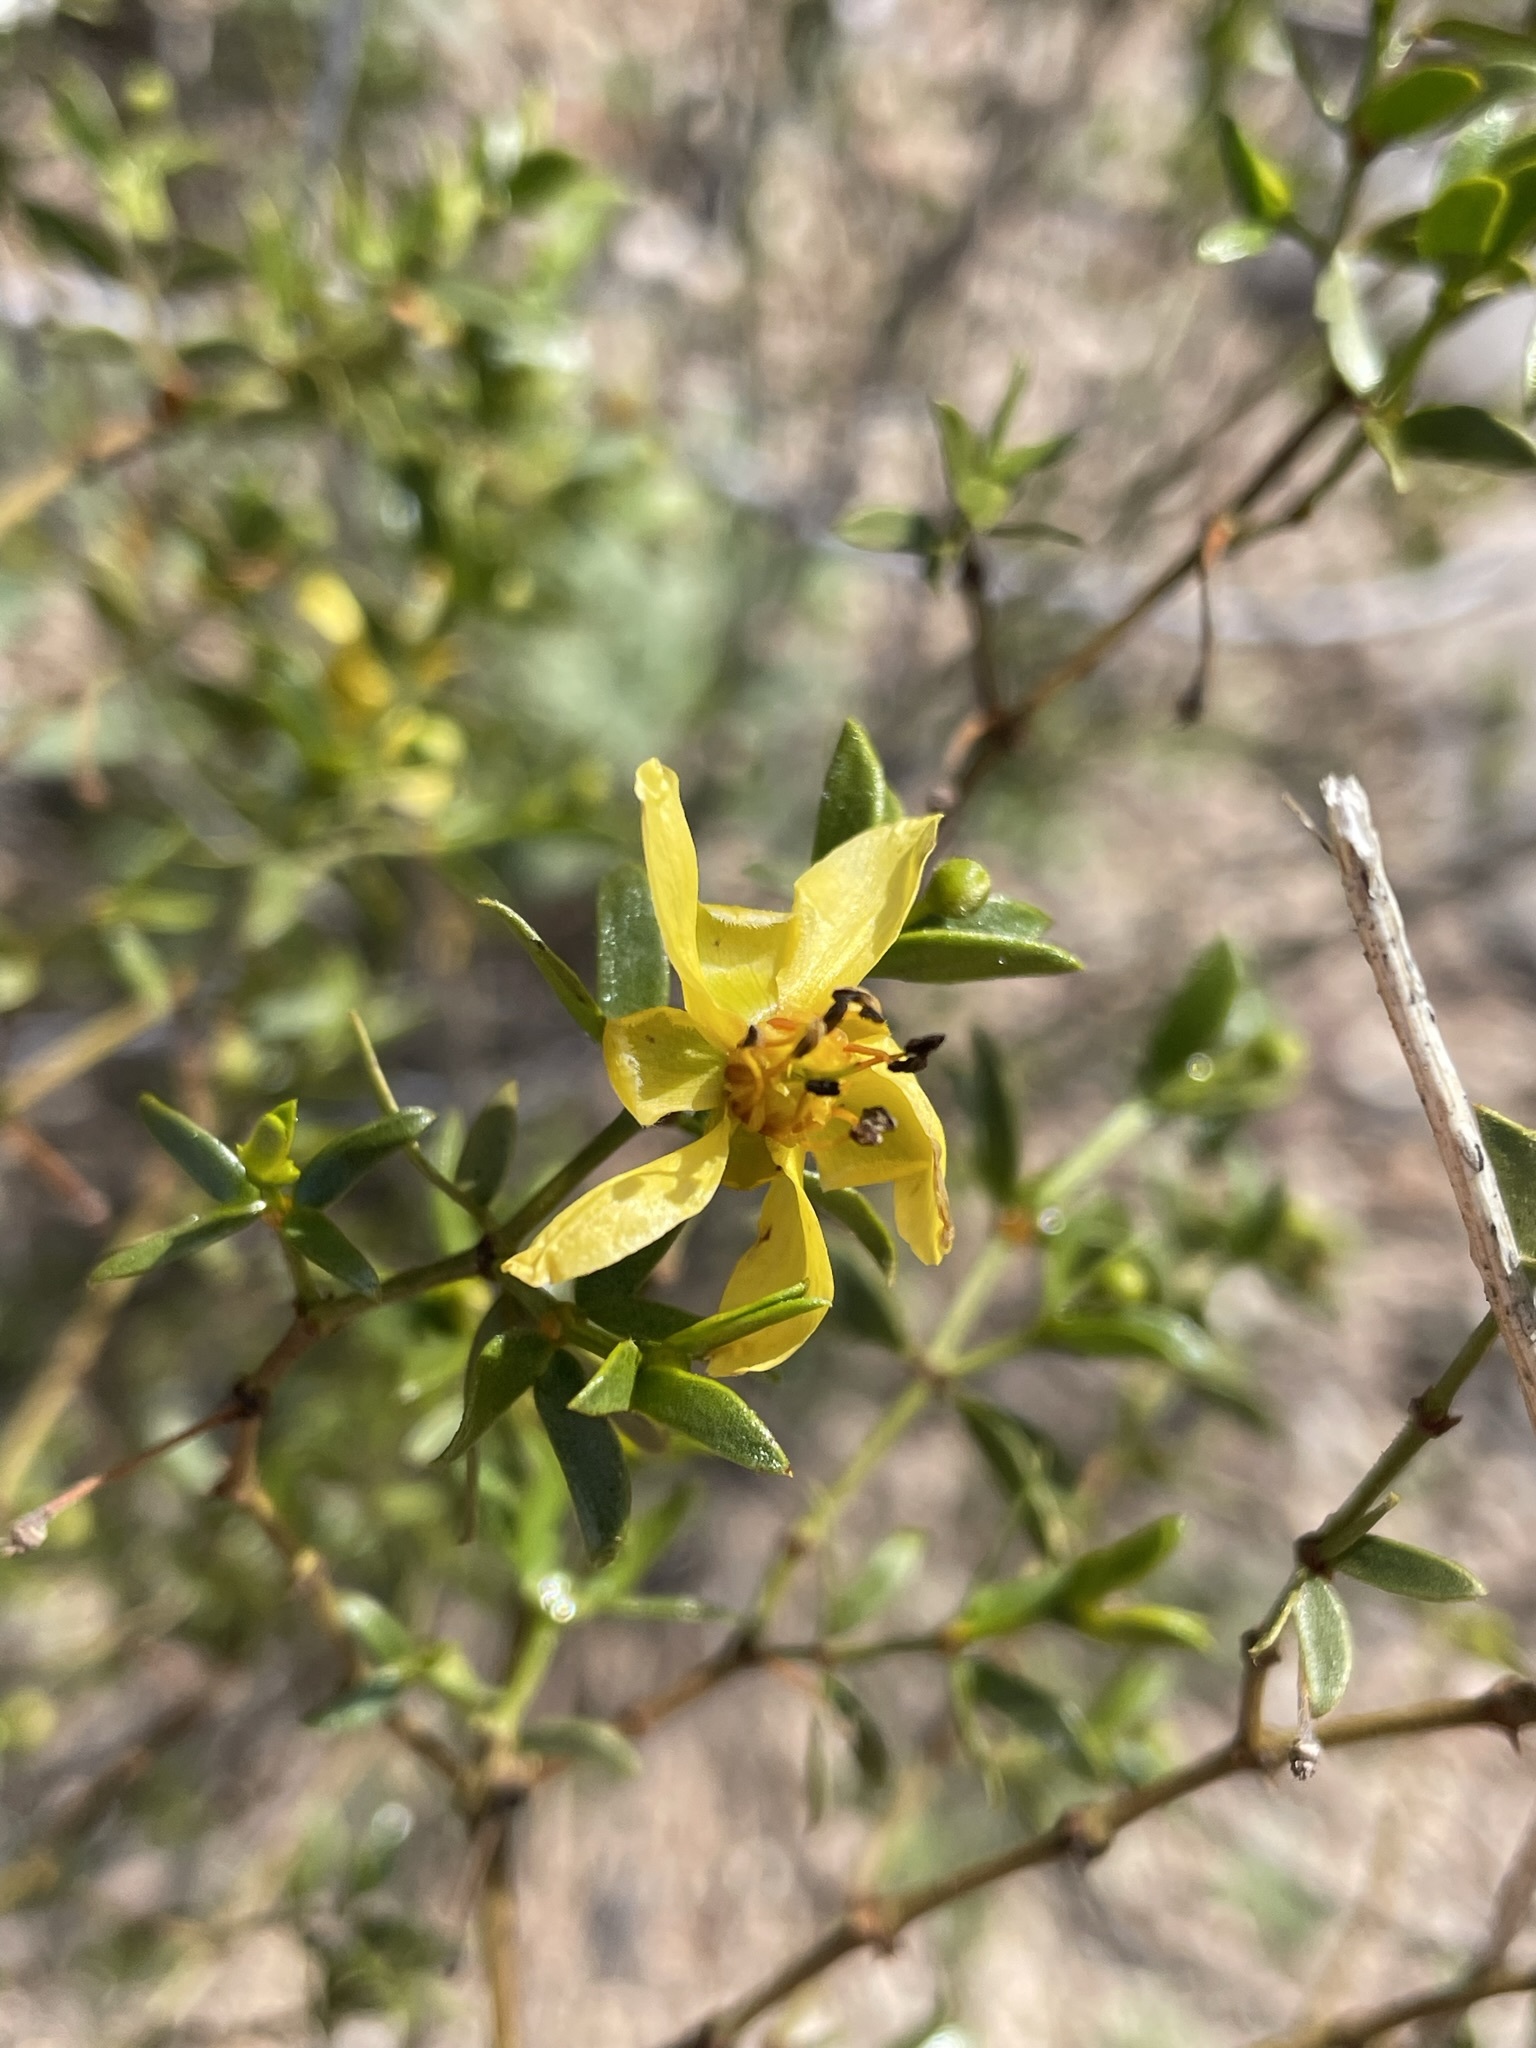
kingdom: Plantae
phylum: Tracheophyta
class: Magnoliopsida
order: Zygophyllales
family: Zygophyllaceae
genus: Larrea
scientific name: Larrea tridentata
